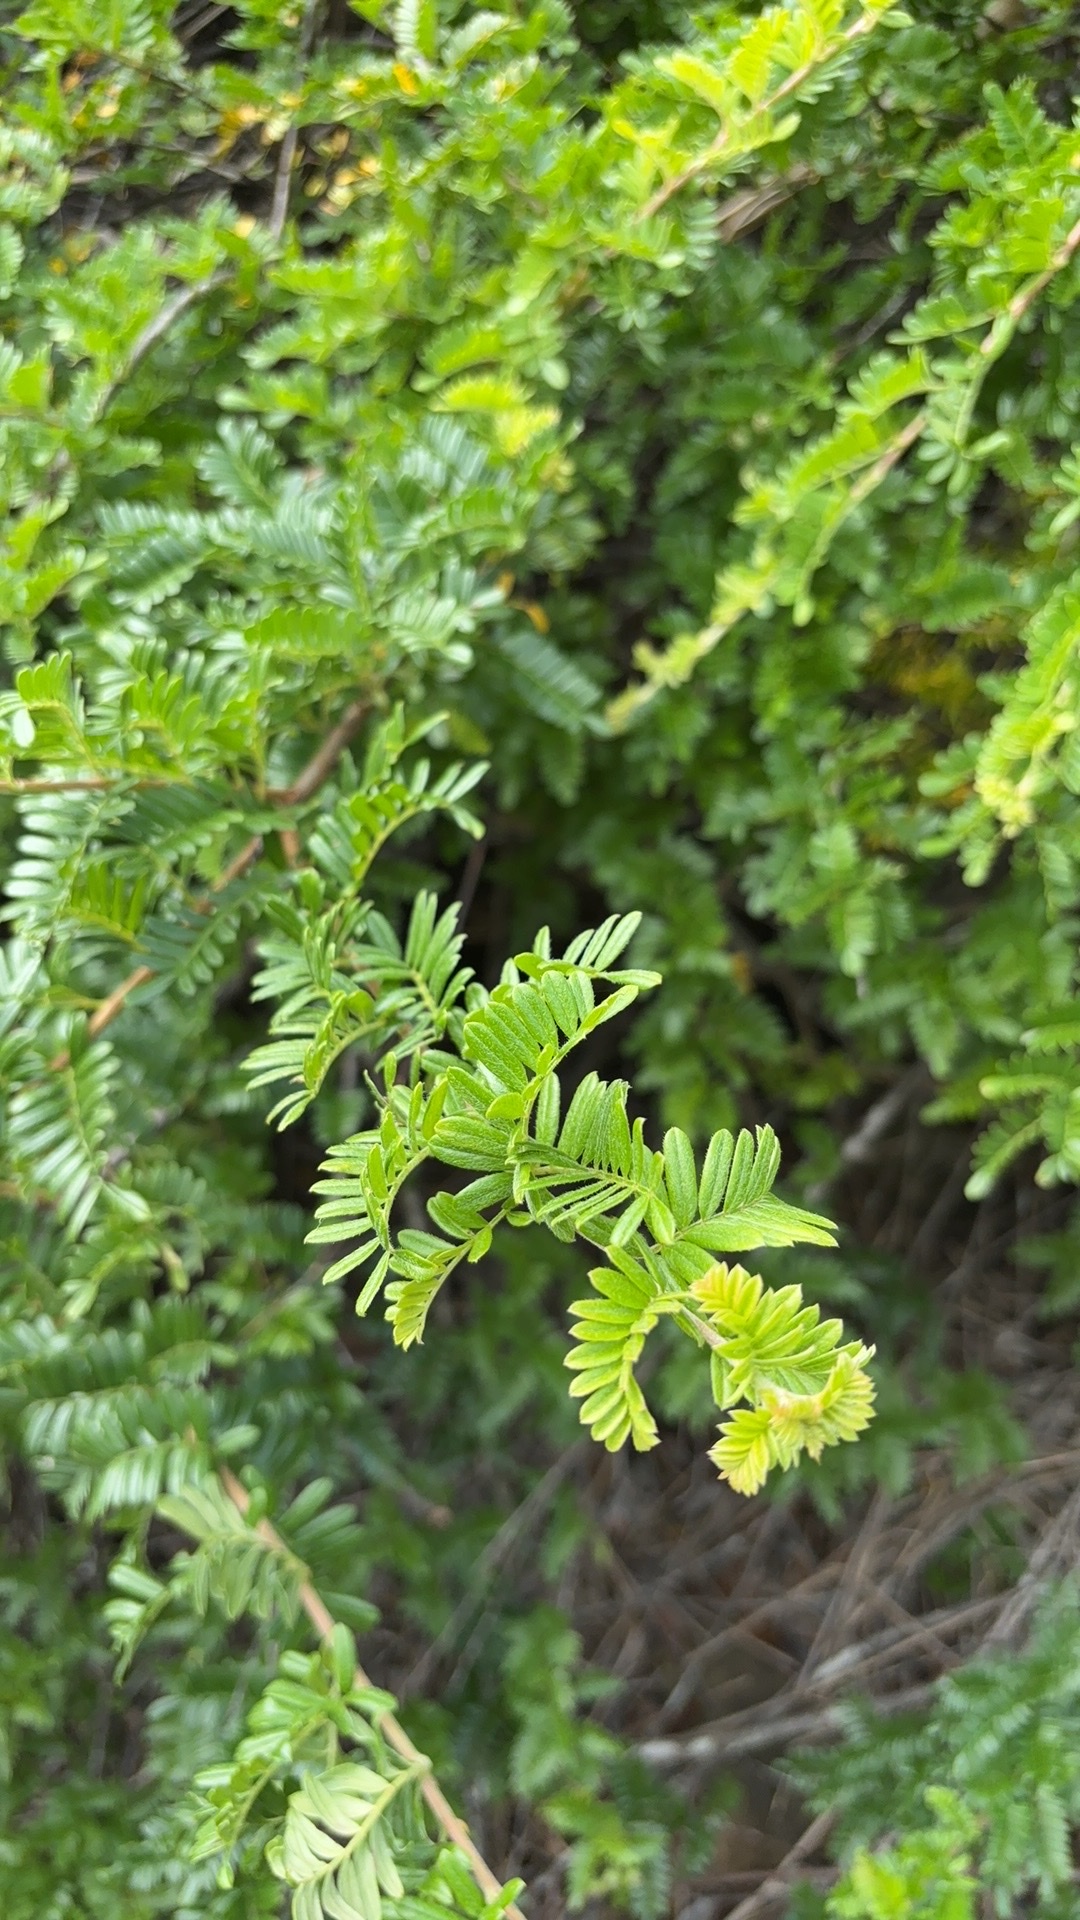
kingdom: Plantae
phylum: Tracheophyta
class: Magnoliopsida
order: Rosales
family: Rosaceae
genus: Osteomeles
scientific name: Osteomeles anthyllidifolia
